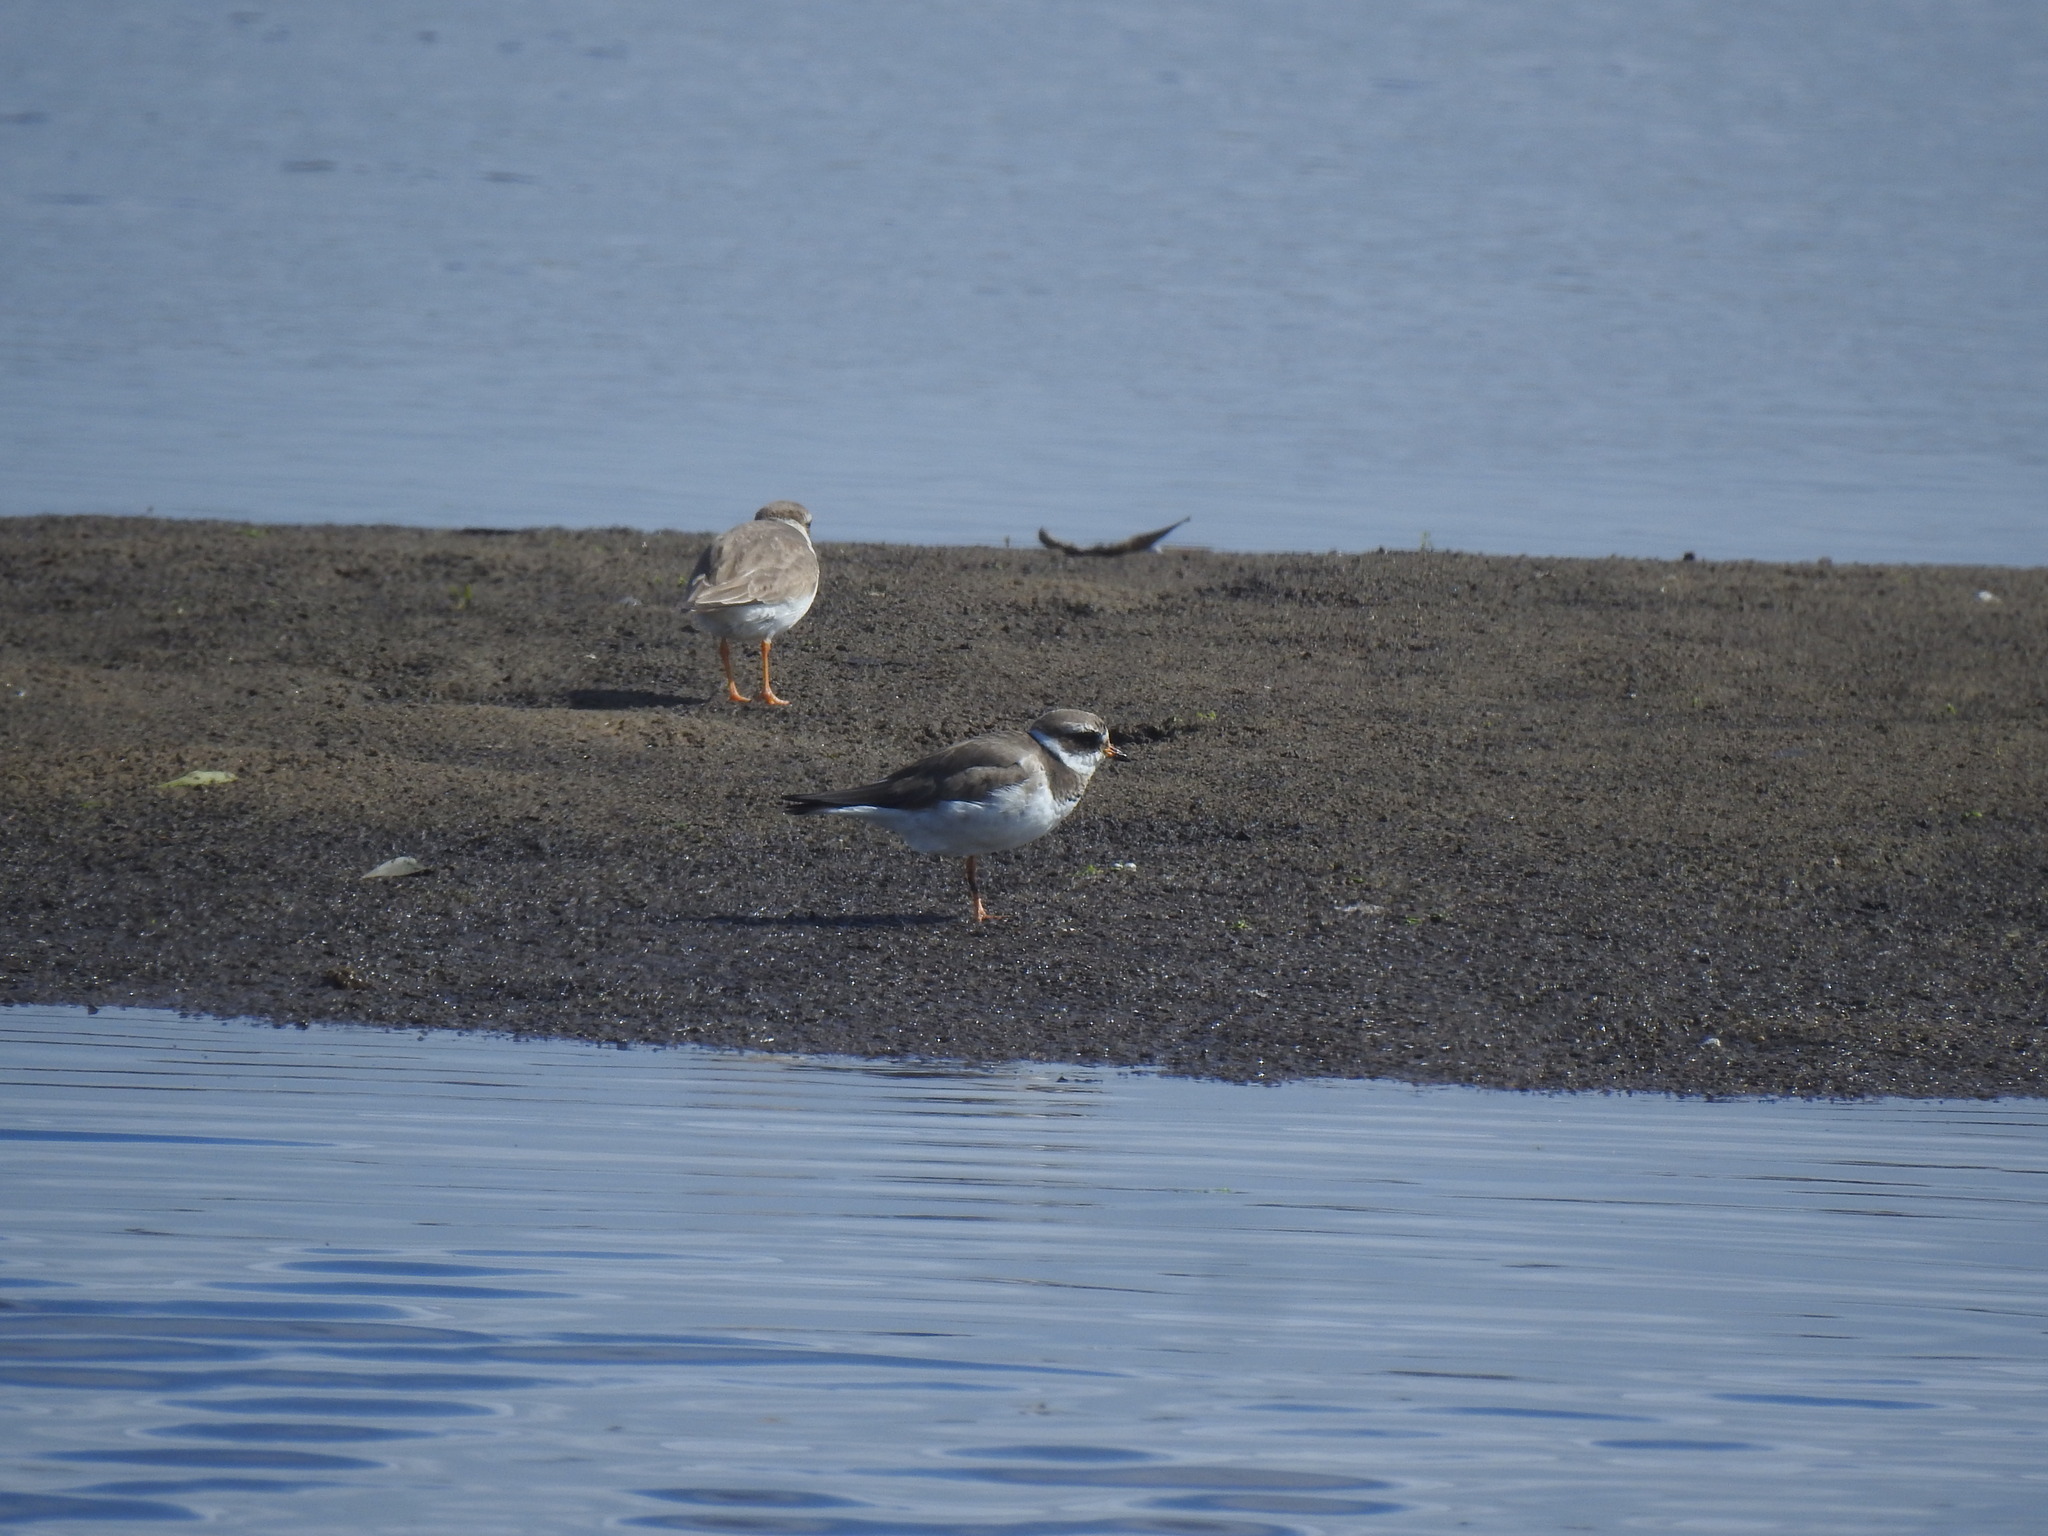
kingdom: Animalia
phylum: Chordata
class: Aves
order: Charadriiformes
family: Charadriidae
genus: Charadrius
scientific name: Charadrius hiaticula
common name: Common ringed plover
